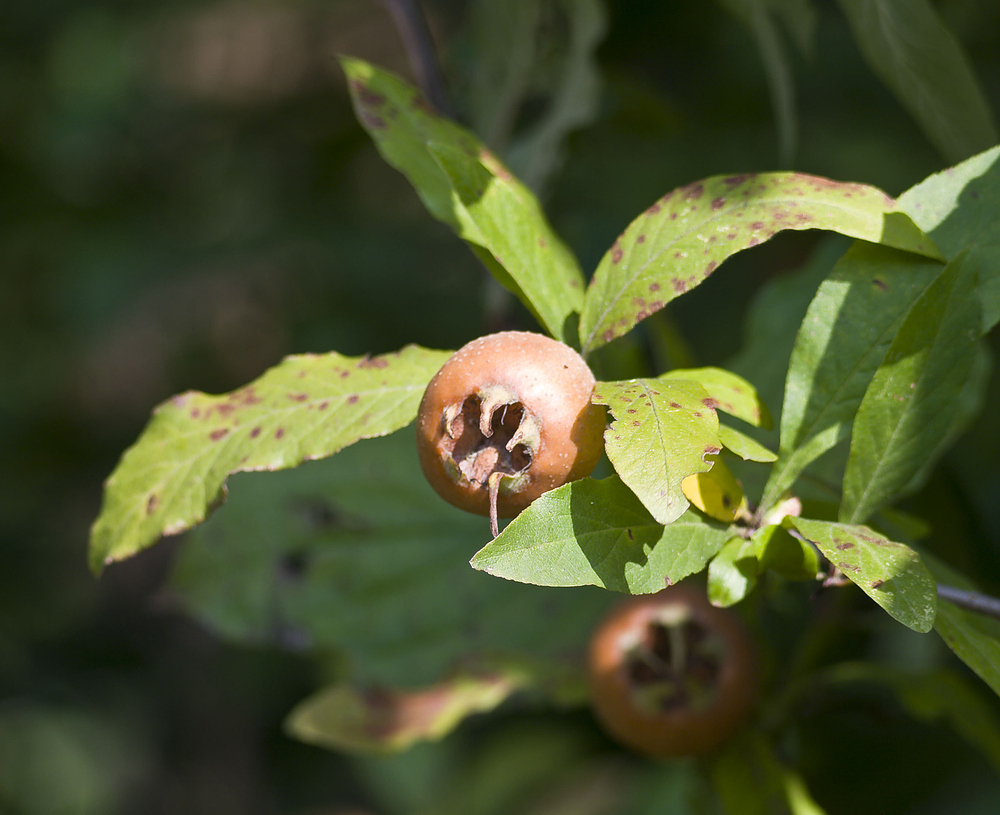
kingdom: Plantae
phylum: Tracheophyta
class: Magnoliopsida
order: Rosales
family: Rosaceae
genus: Mespilus
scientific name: Mespilus germanica
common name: Medlar
